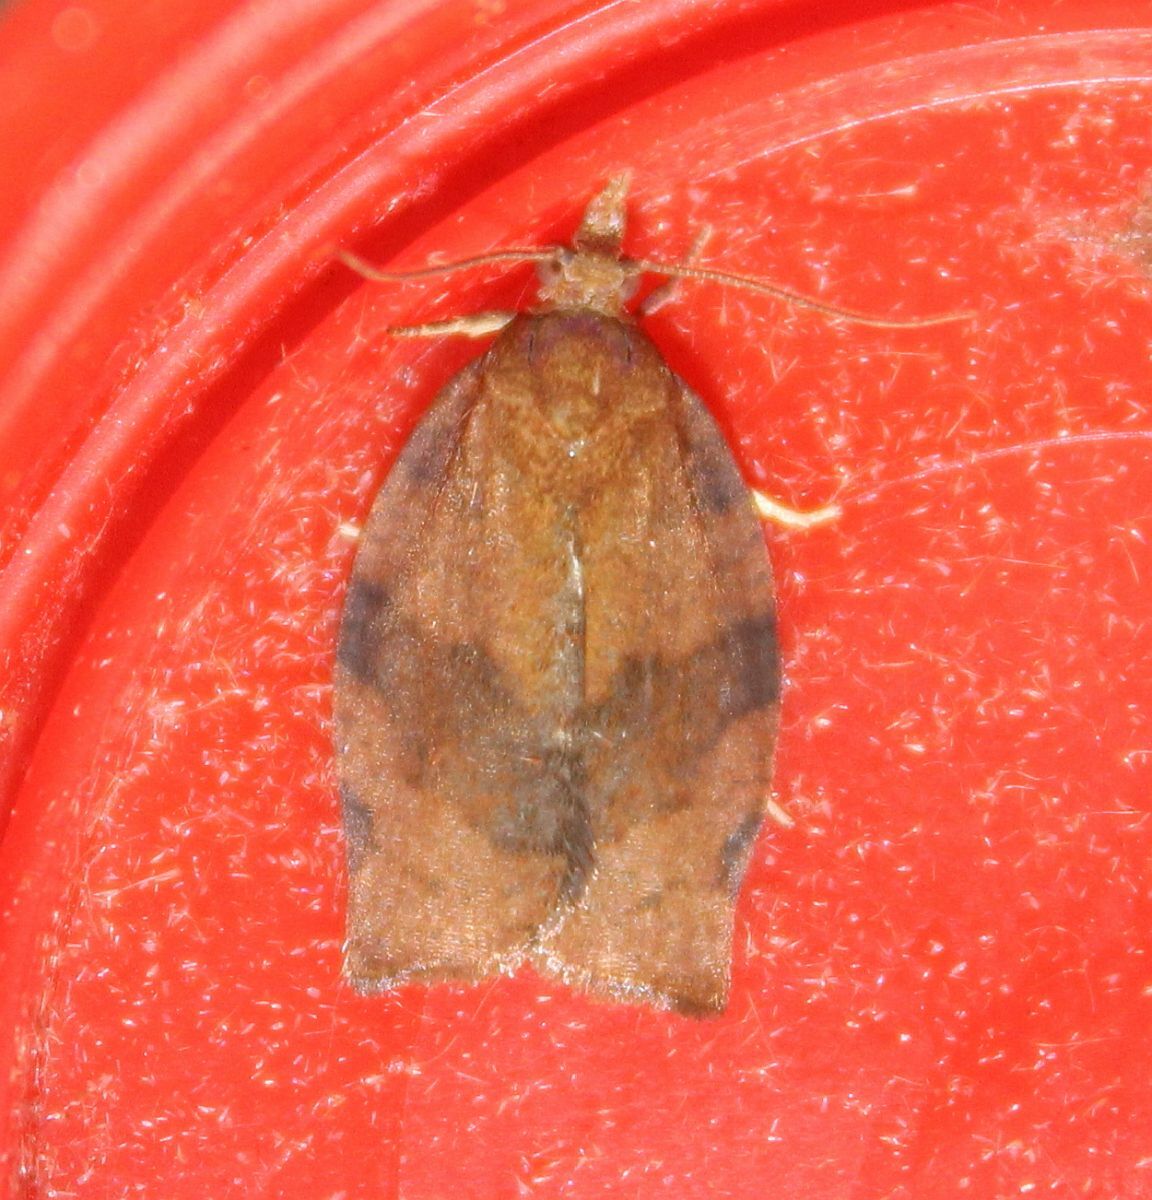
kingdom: Animalia
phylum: Arthropoda
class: Insecta
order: Lepidoptera
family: Tortricidae
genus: Pandemis
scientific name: Pandemis heparana
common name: Dark fruit-tree tortrix
